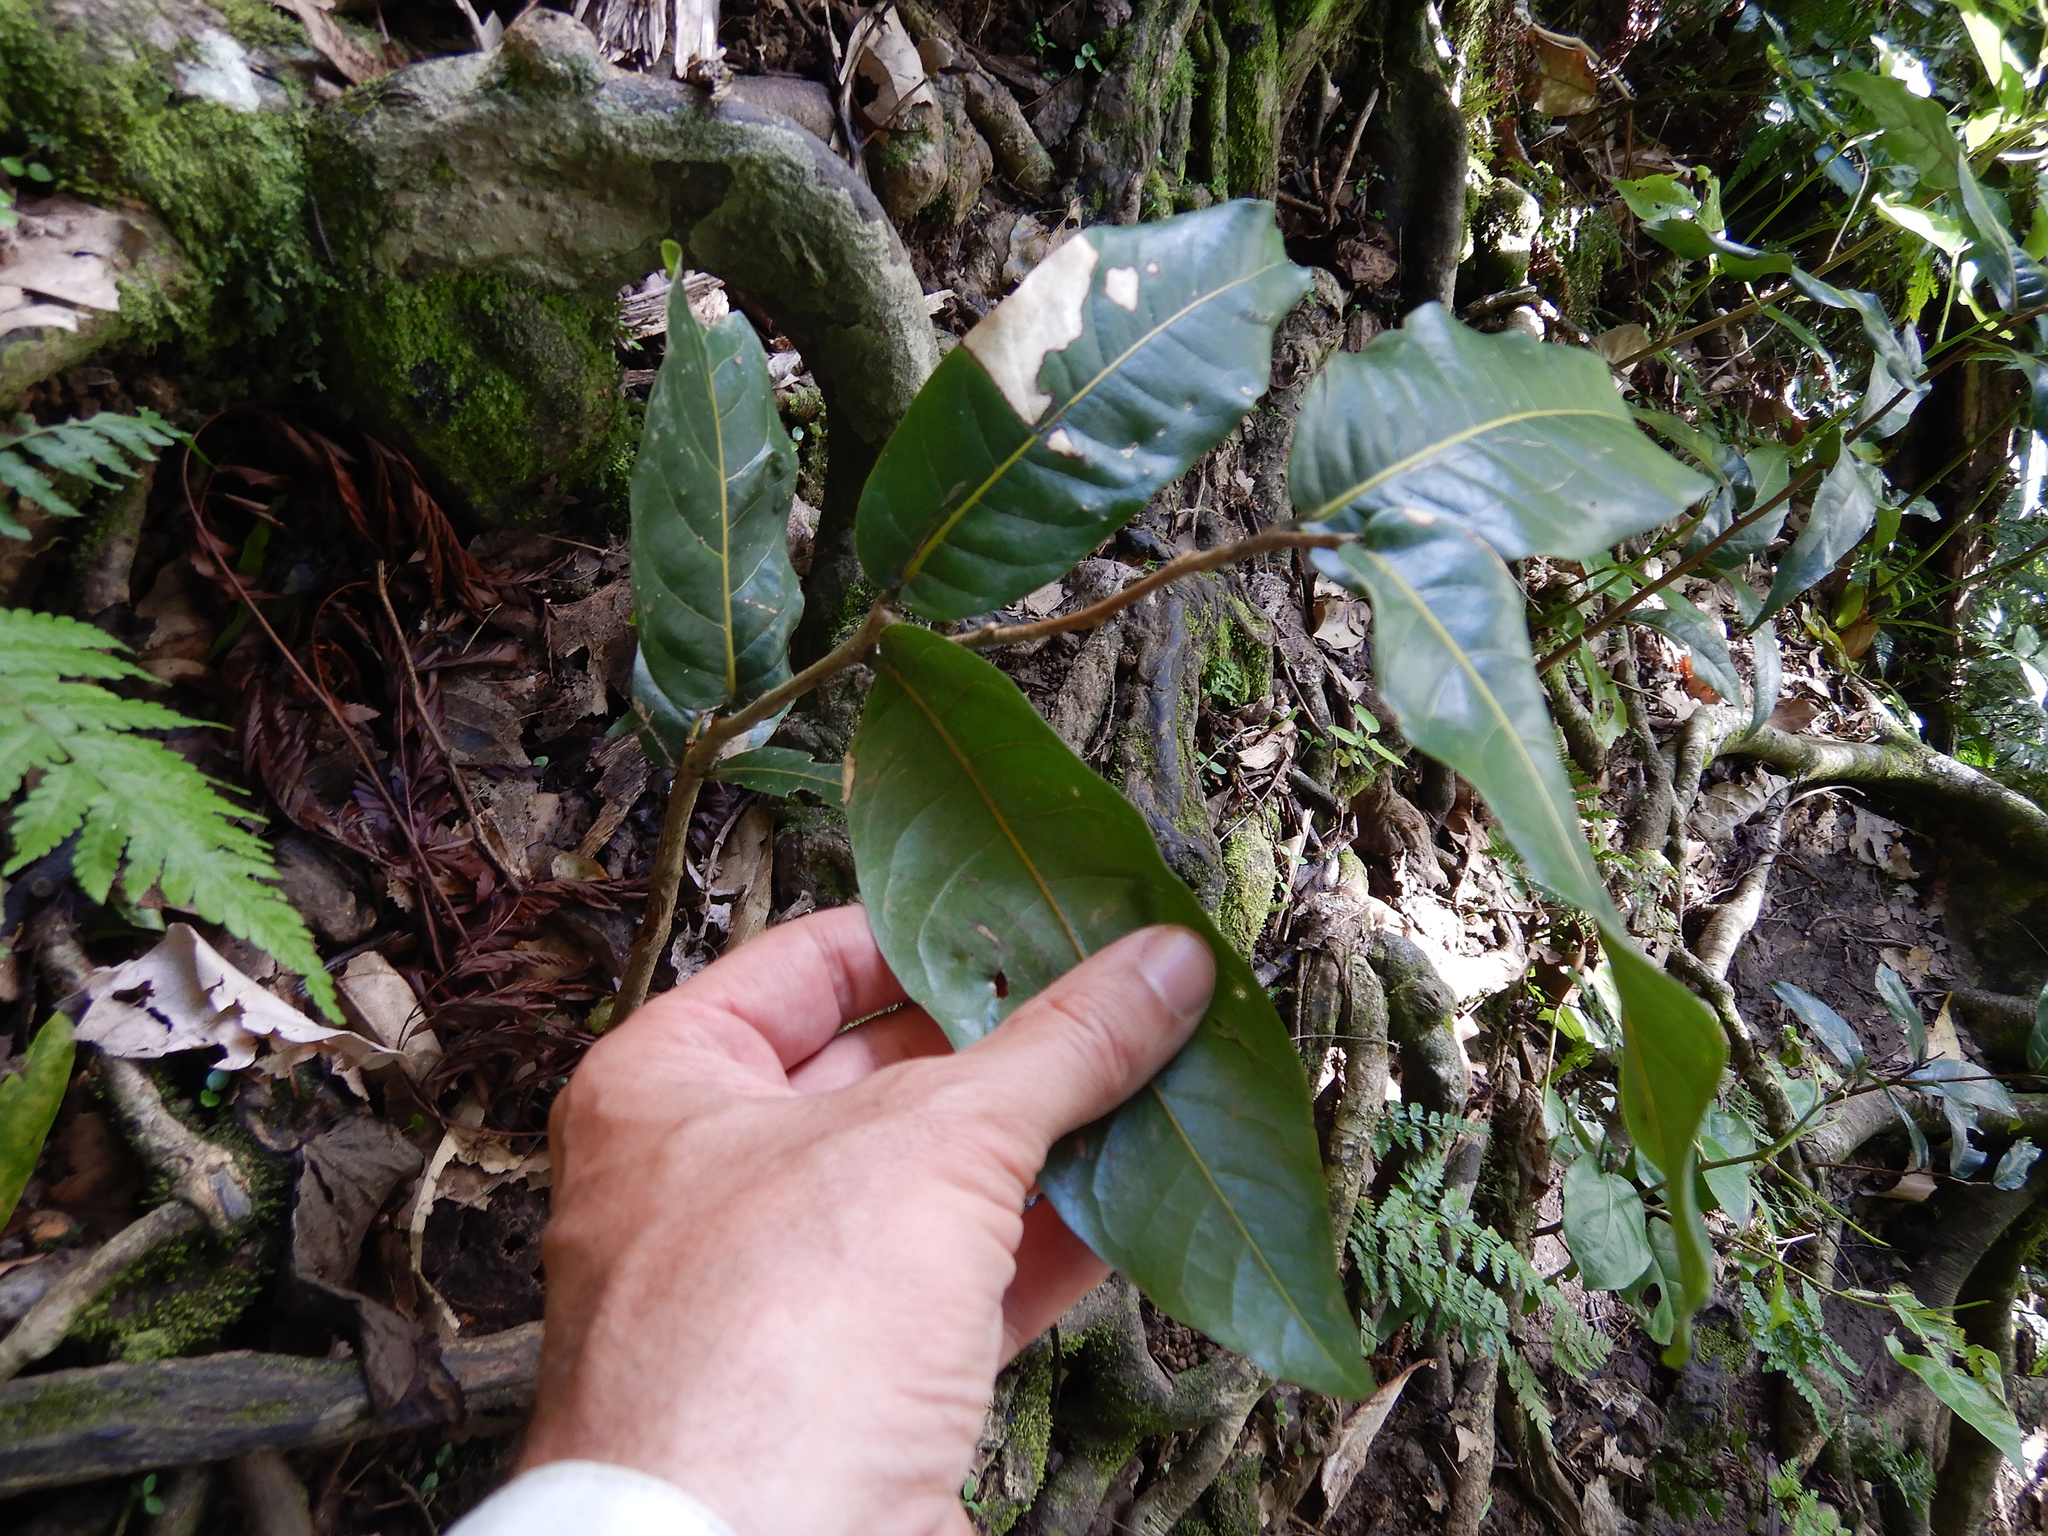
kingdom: Plantae
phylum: Tracheophyta
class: Magnoliopsida
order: Fabales
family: Fabaceae
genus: Inocarpus
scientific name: Inocarpus fagifer
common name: Polynesian chestnut
